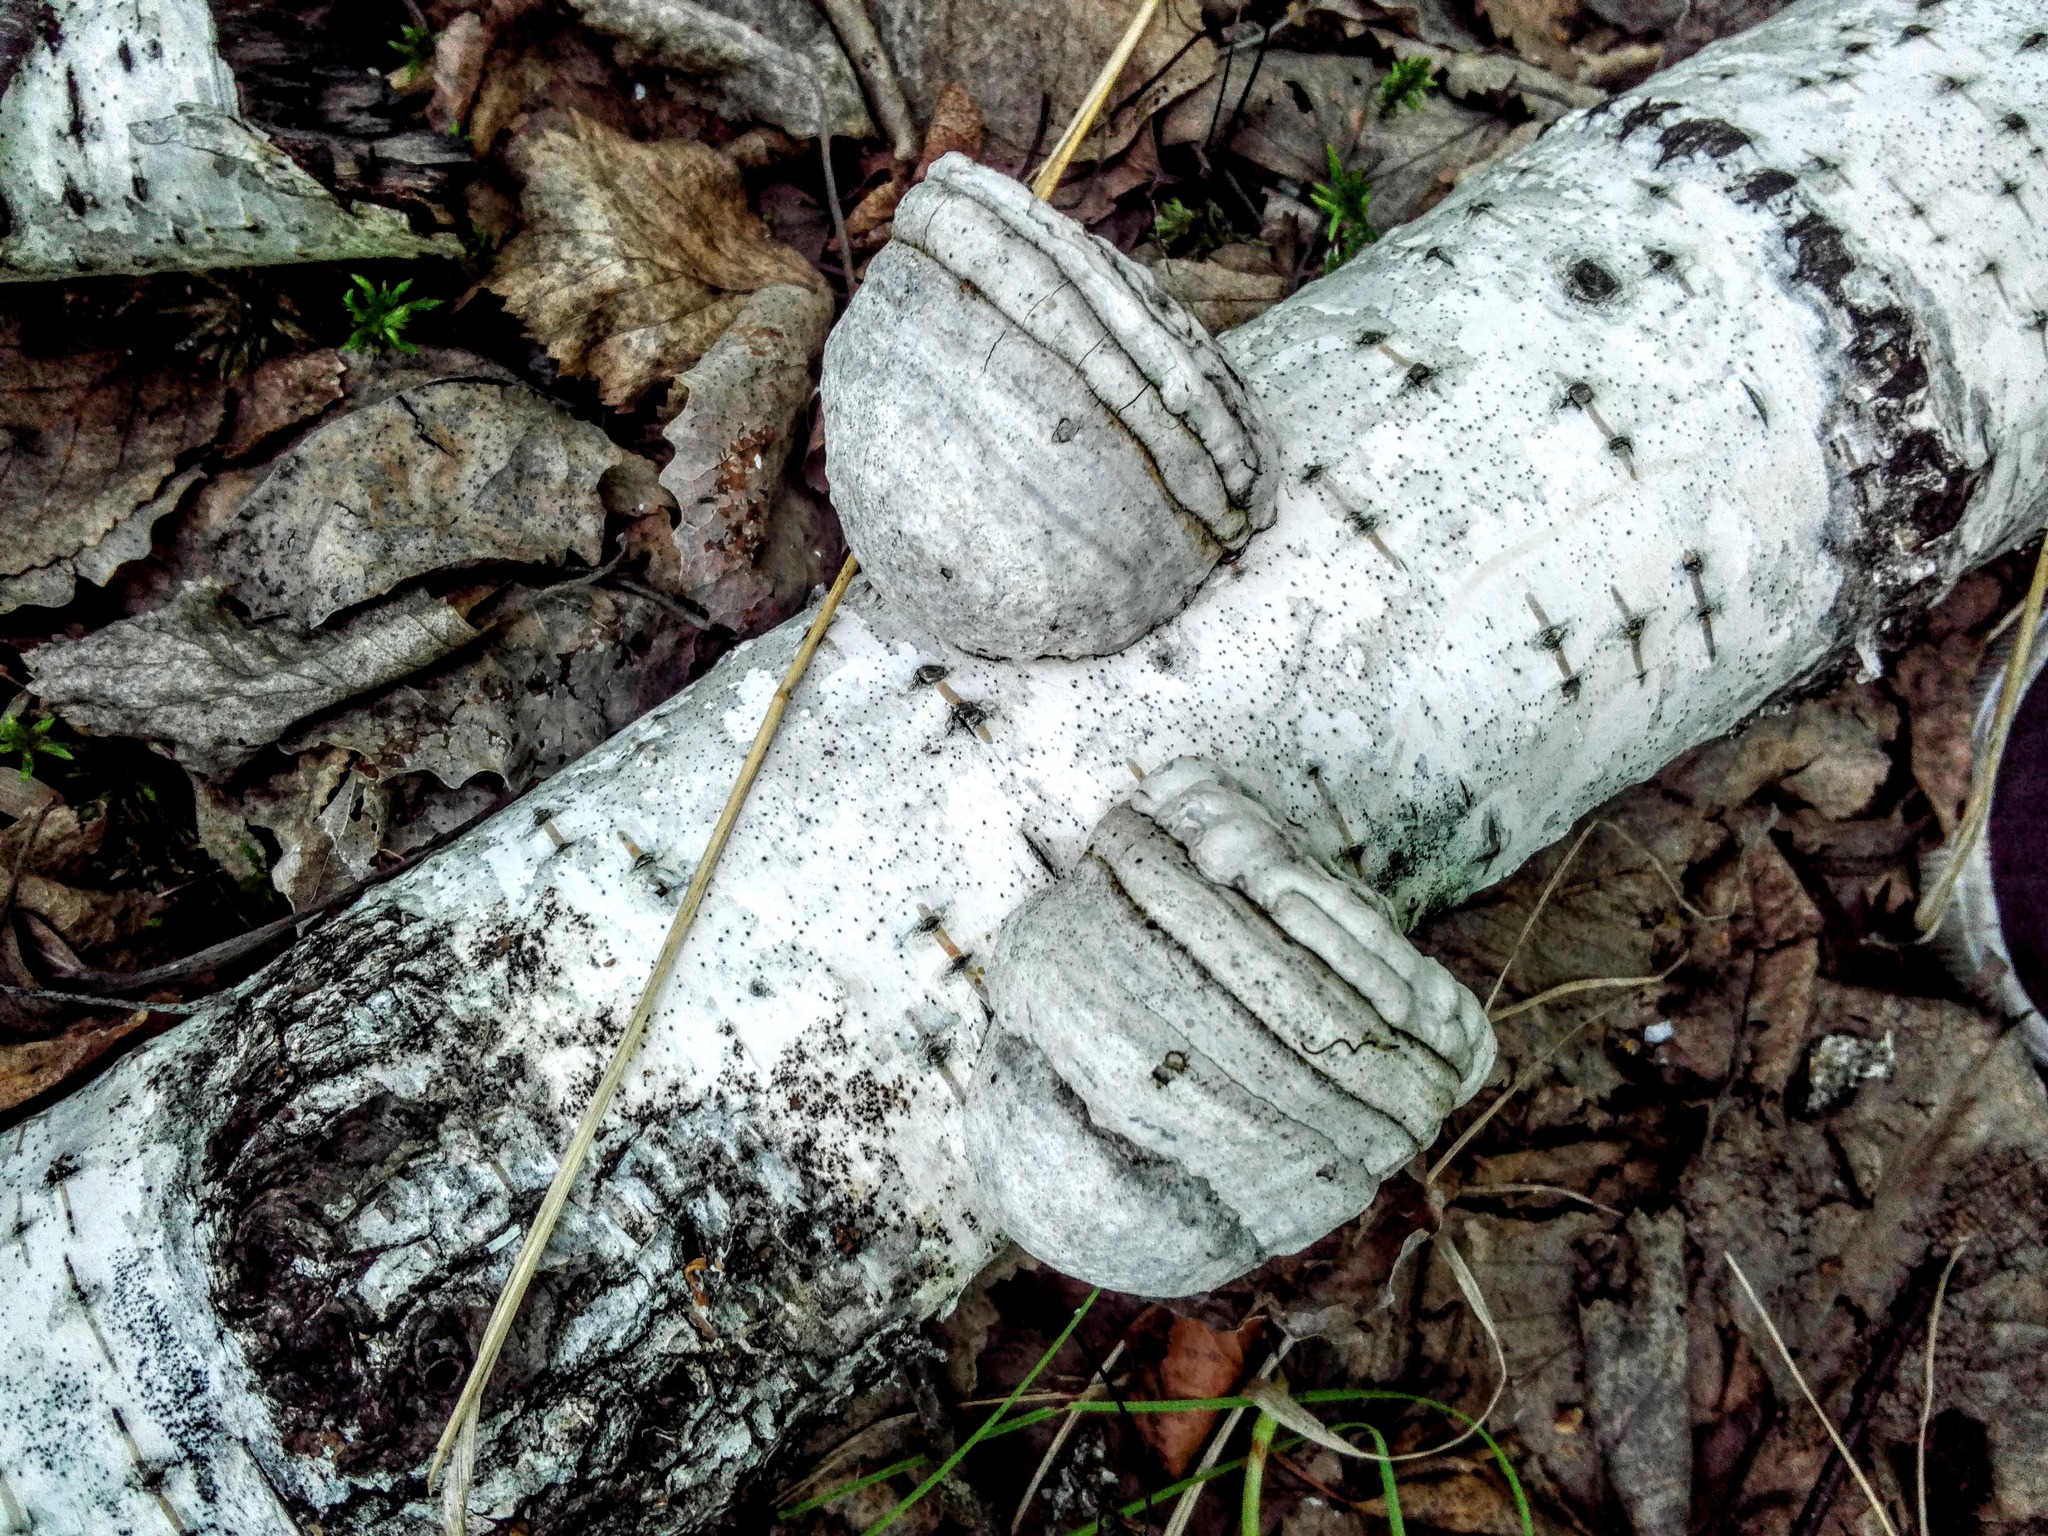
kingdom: Fungi
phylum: Basidiomycota
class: Agaricomycetes
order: Polyporales
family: Polyporaceae
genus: Fomes
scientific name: Fomes fomentarius
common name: Hoof fungus
